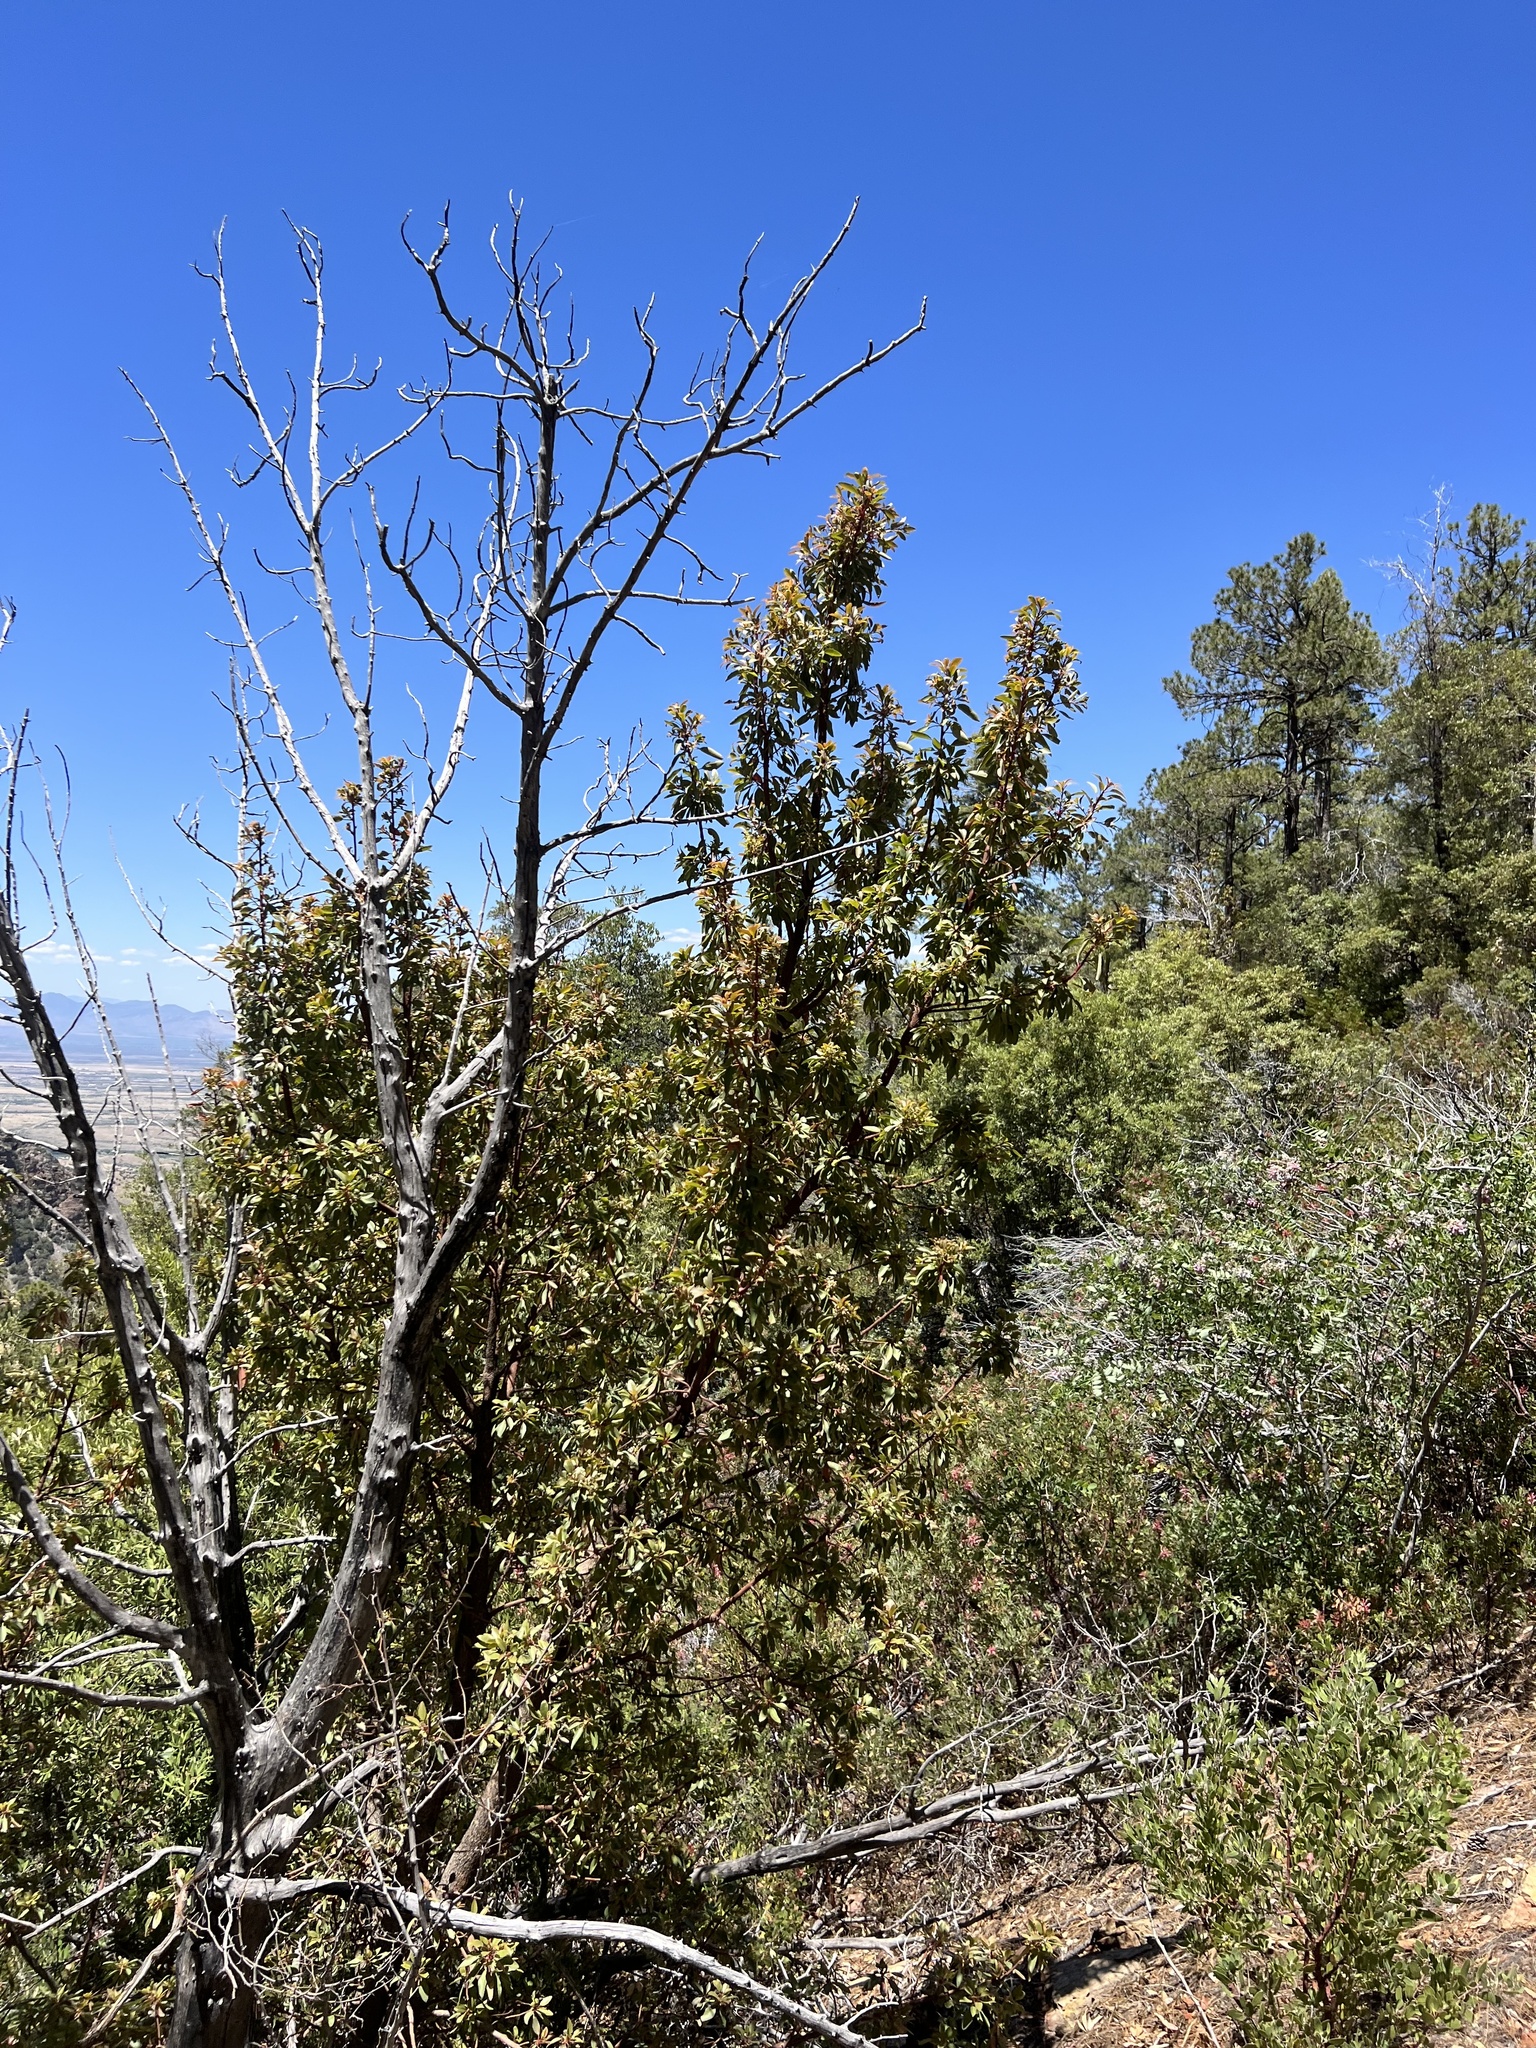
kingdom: Plantae
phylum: Tracheophyta
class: Magnoliopsida
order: Ericales
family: Ericaceae
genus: Arbutus
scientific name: Arbutus arizonica
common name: Arizona madrone
